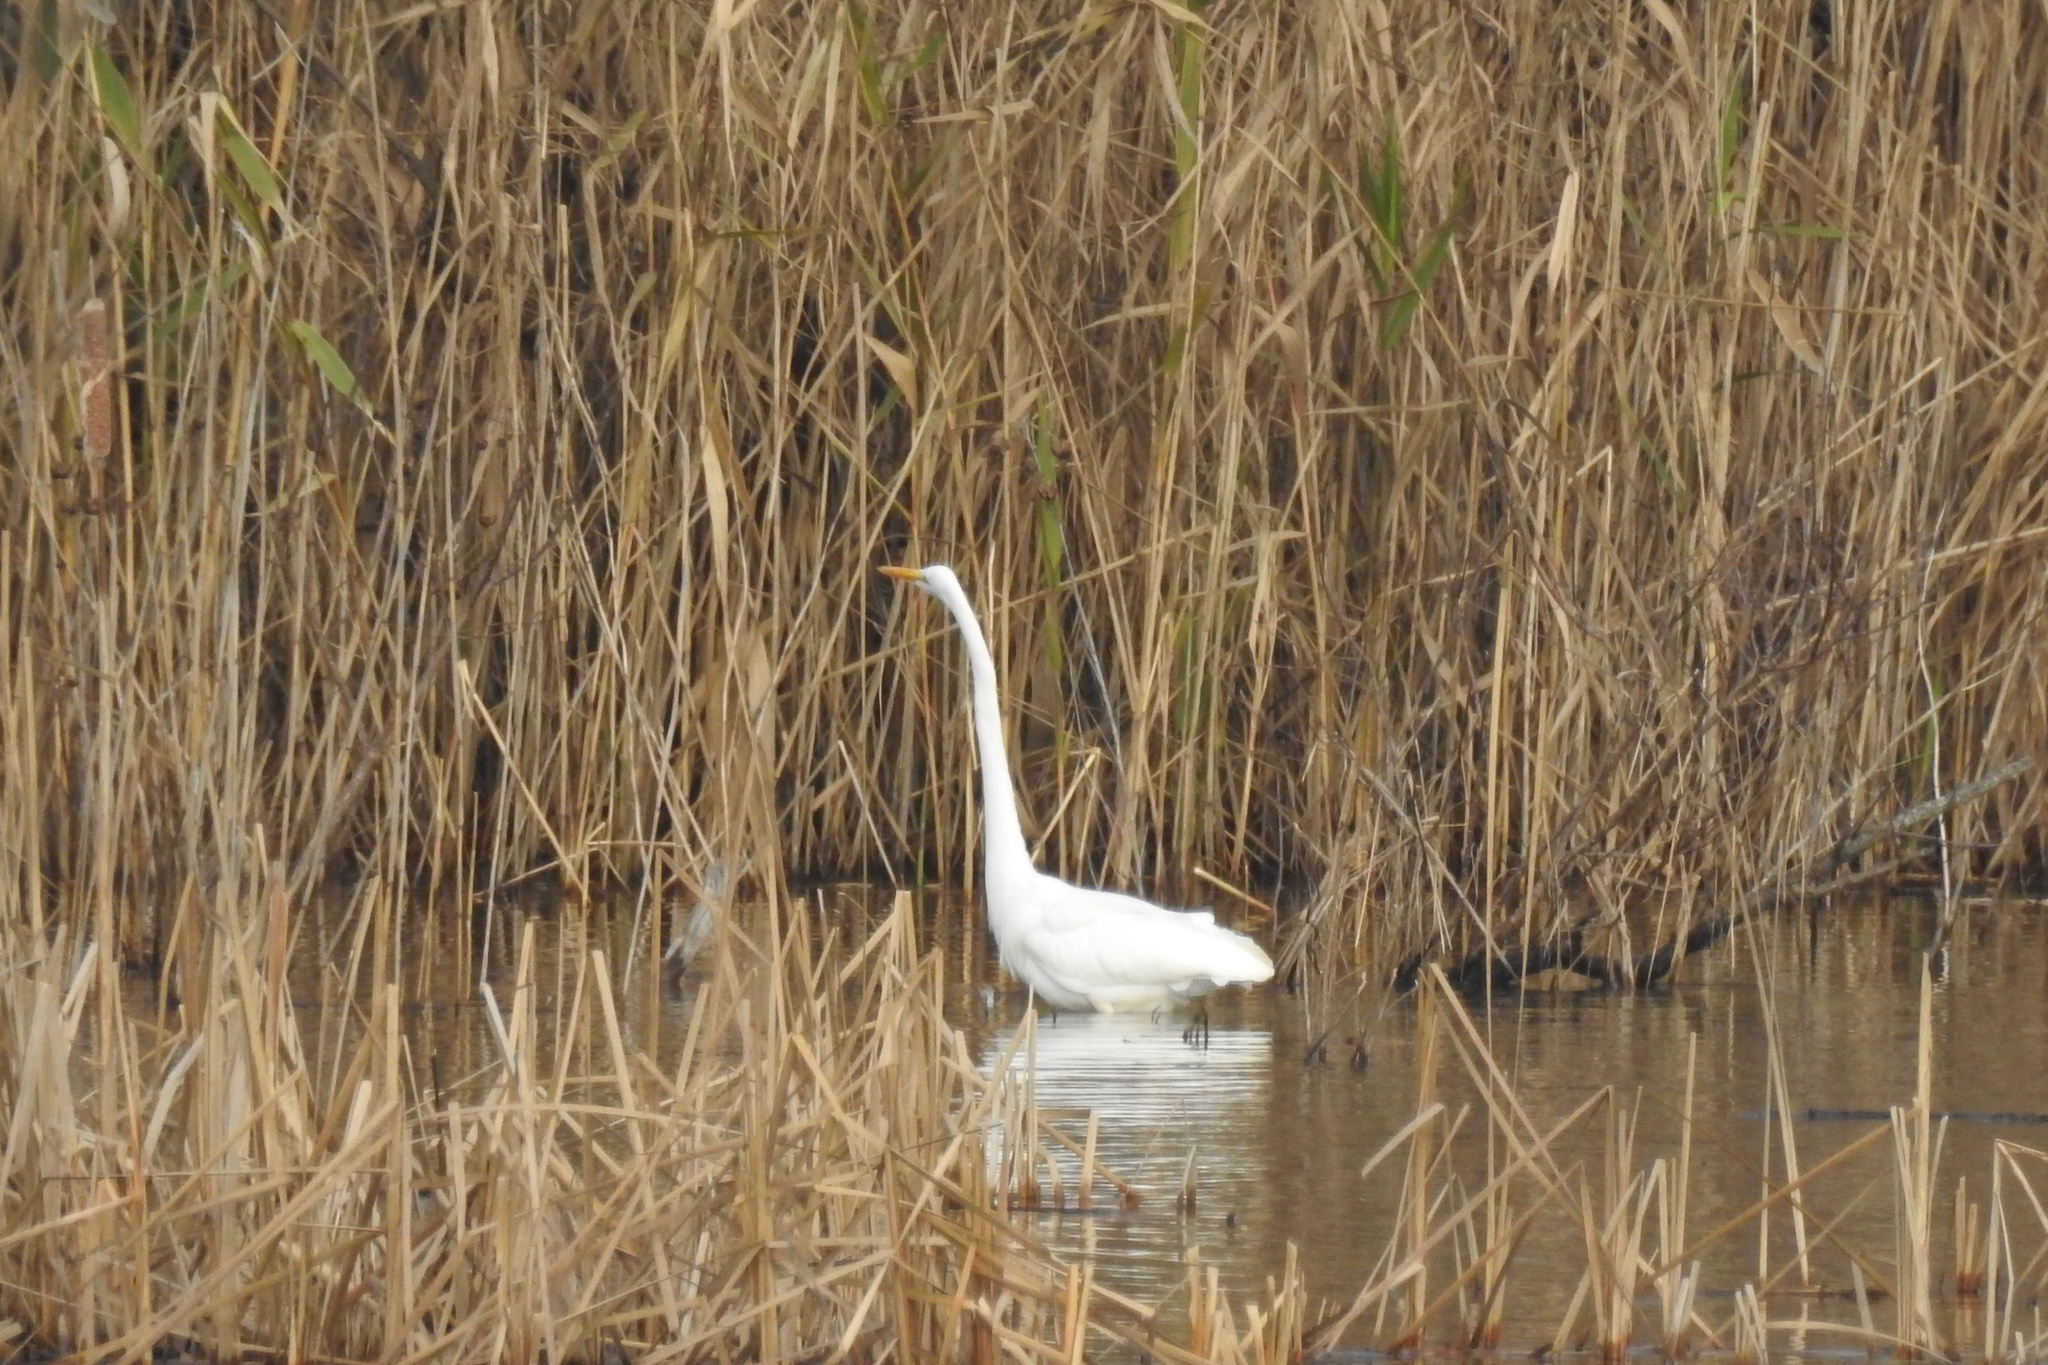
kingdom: Animalia
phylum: Chordata
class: Aves
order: Pelecaniformes
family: Ardeidae
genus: Ardea
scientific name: Ardea alba
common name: Great egret
